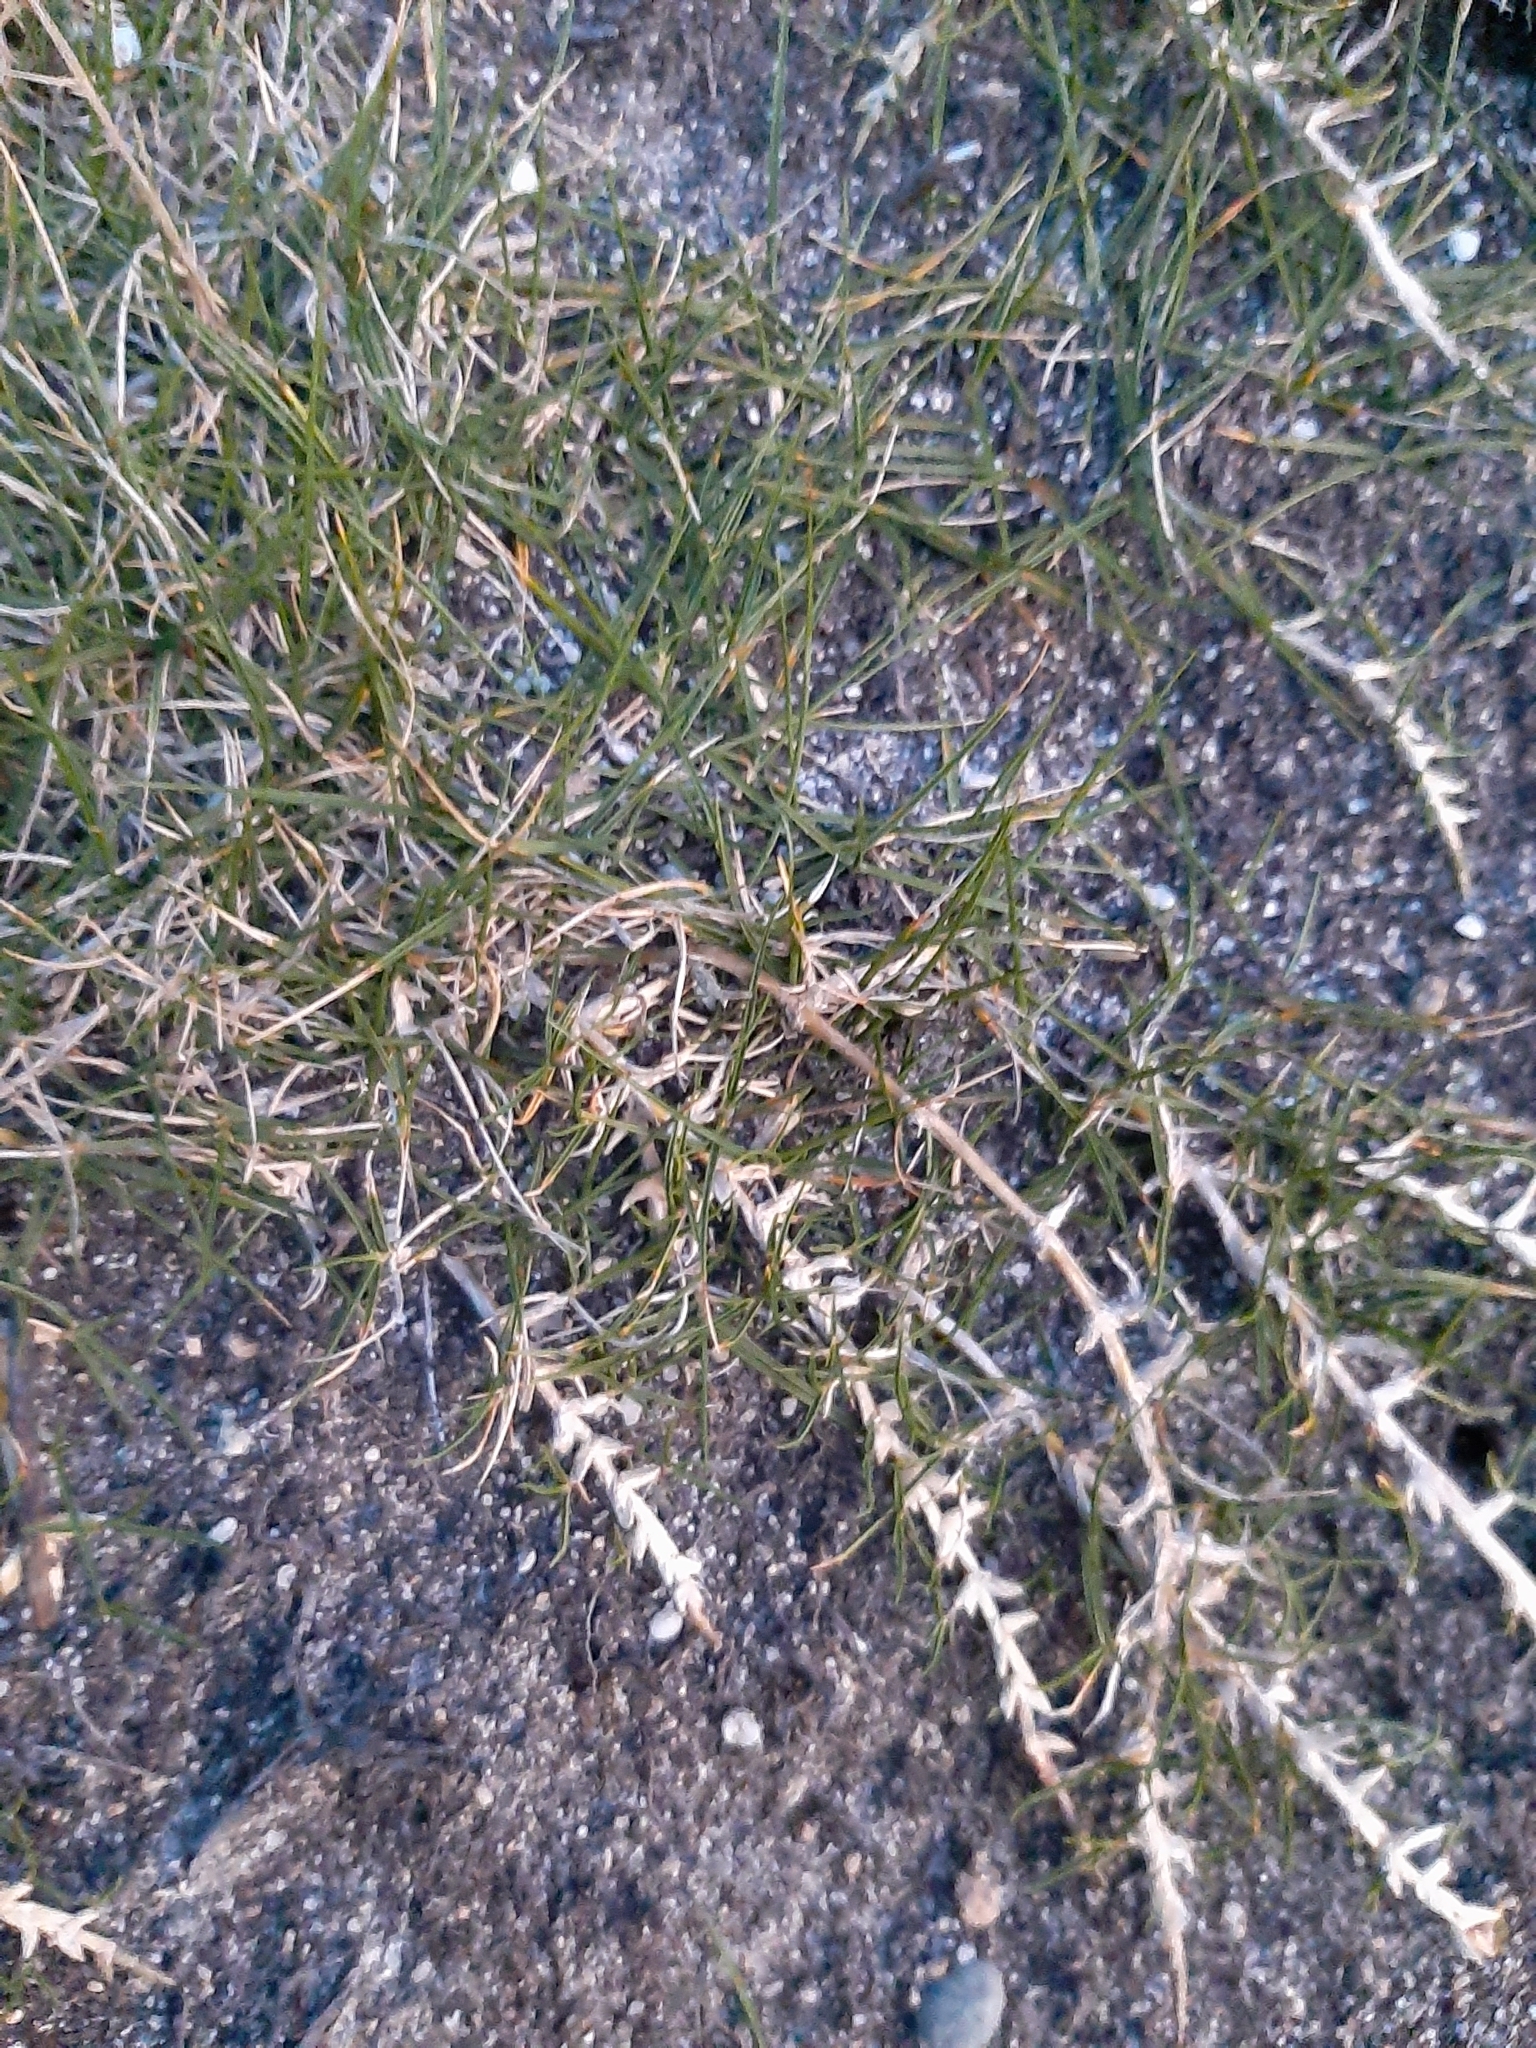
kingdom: Plantae
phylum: Tracheophyta
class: Liliopsida
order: Poales
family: Poaceae
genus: Zoysia
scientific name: Zoysia minima
